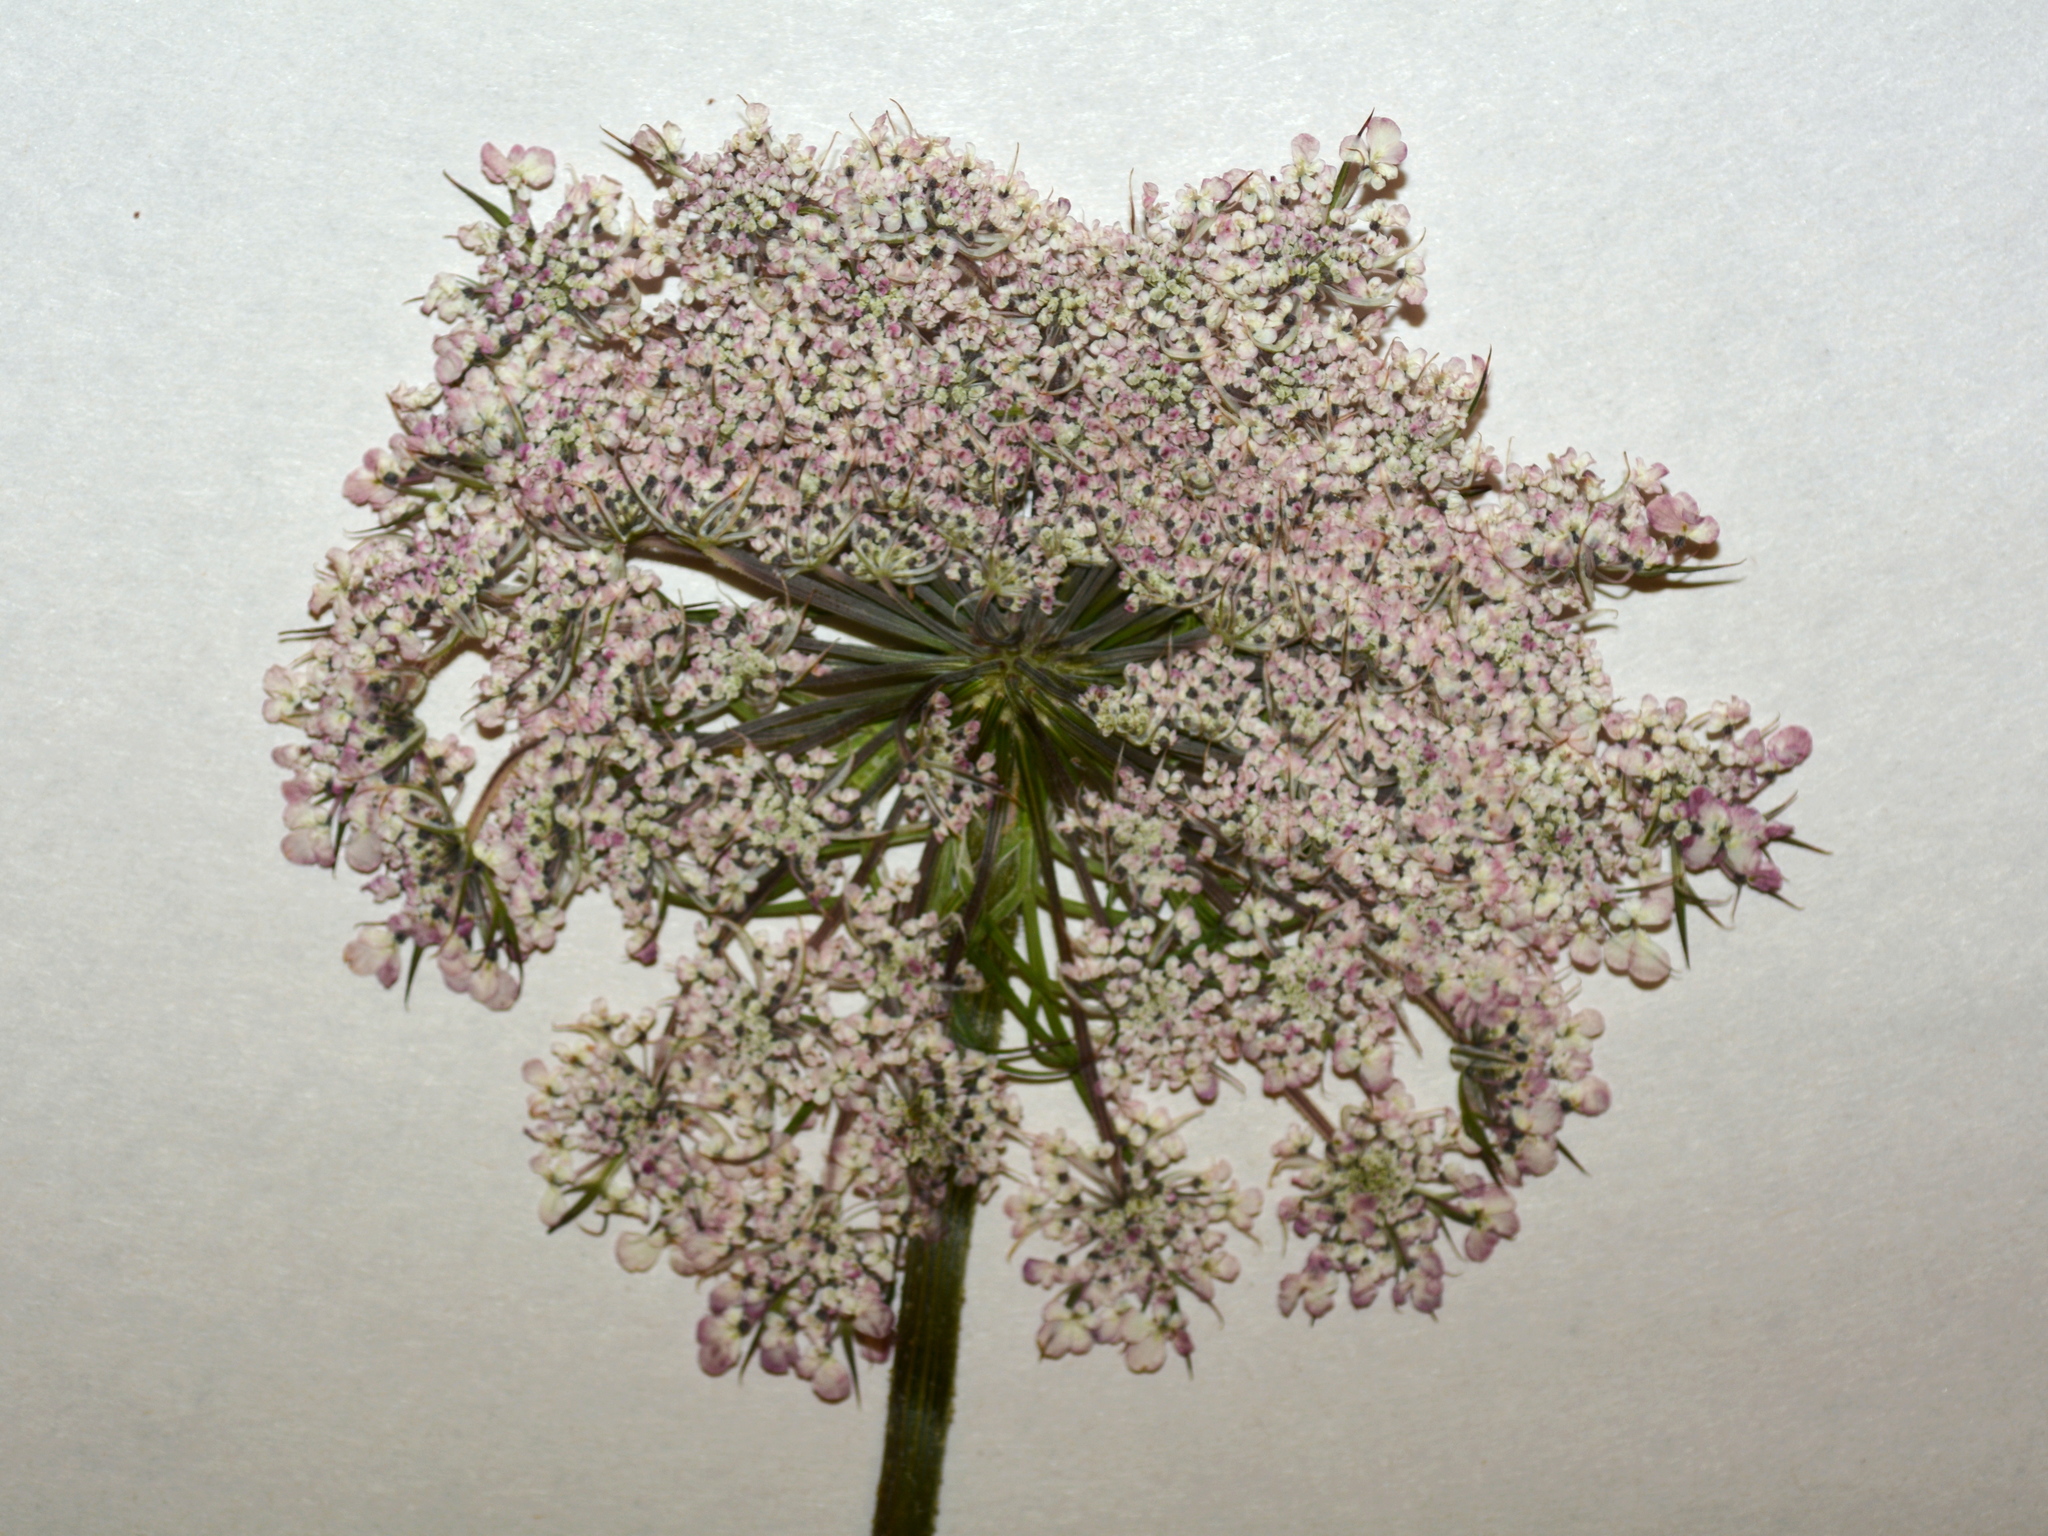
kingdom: Plantae
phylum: Tracheophyta
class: Magnoliopsida
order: Apiales
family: Apiaceae
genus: Daucus
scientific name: Daucus carota
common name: Wild carrot
